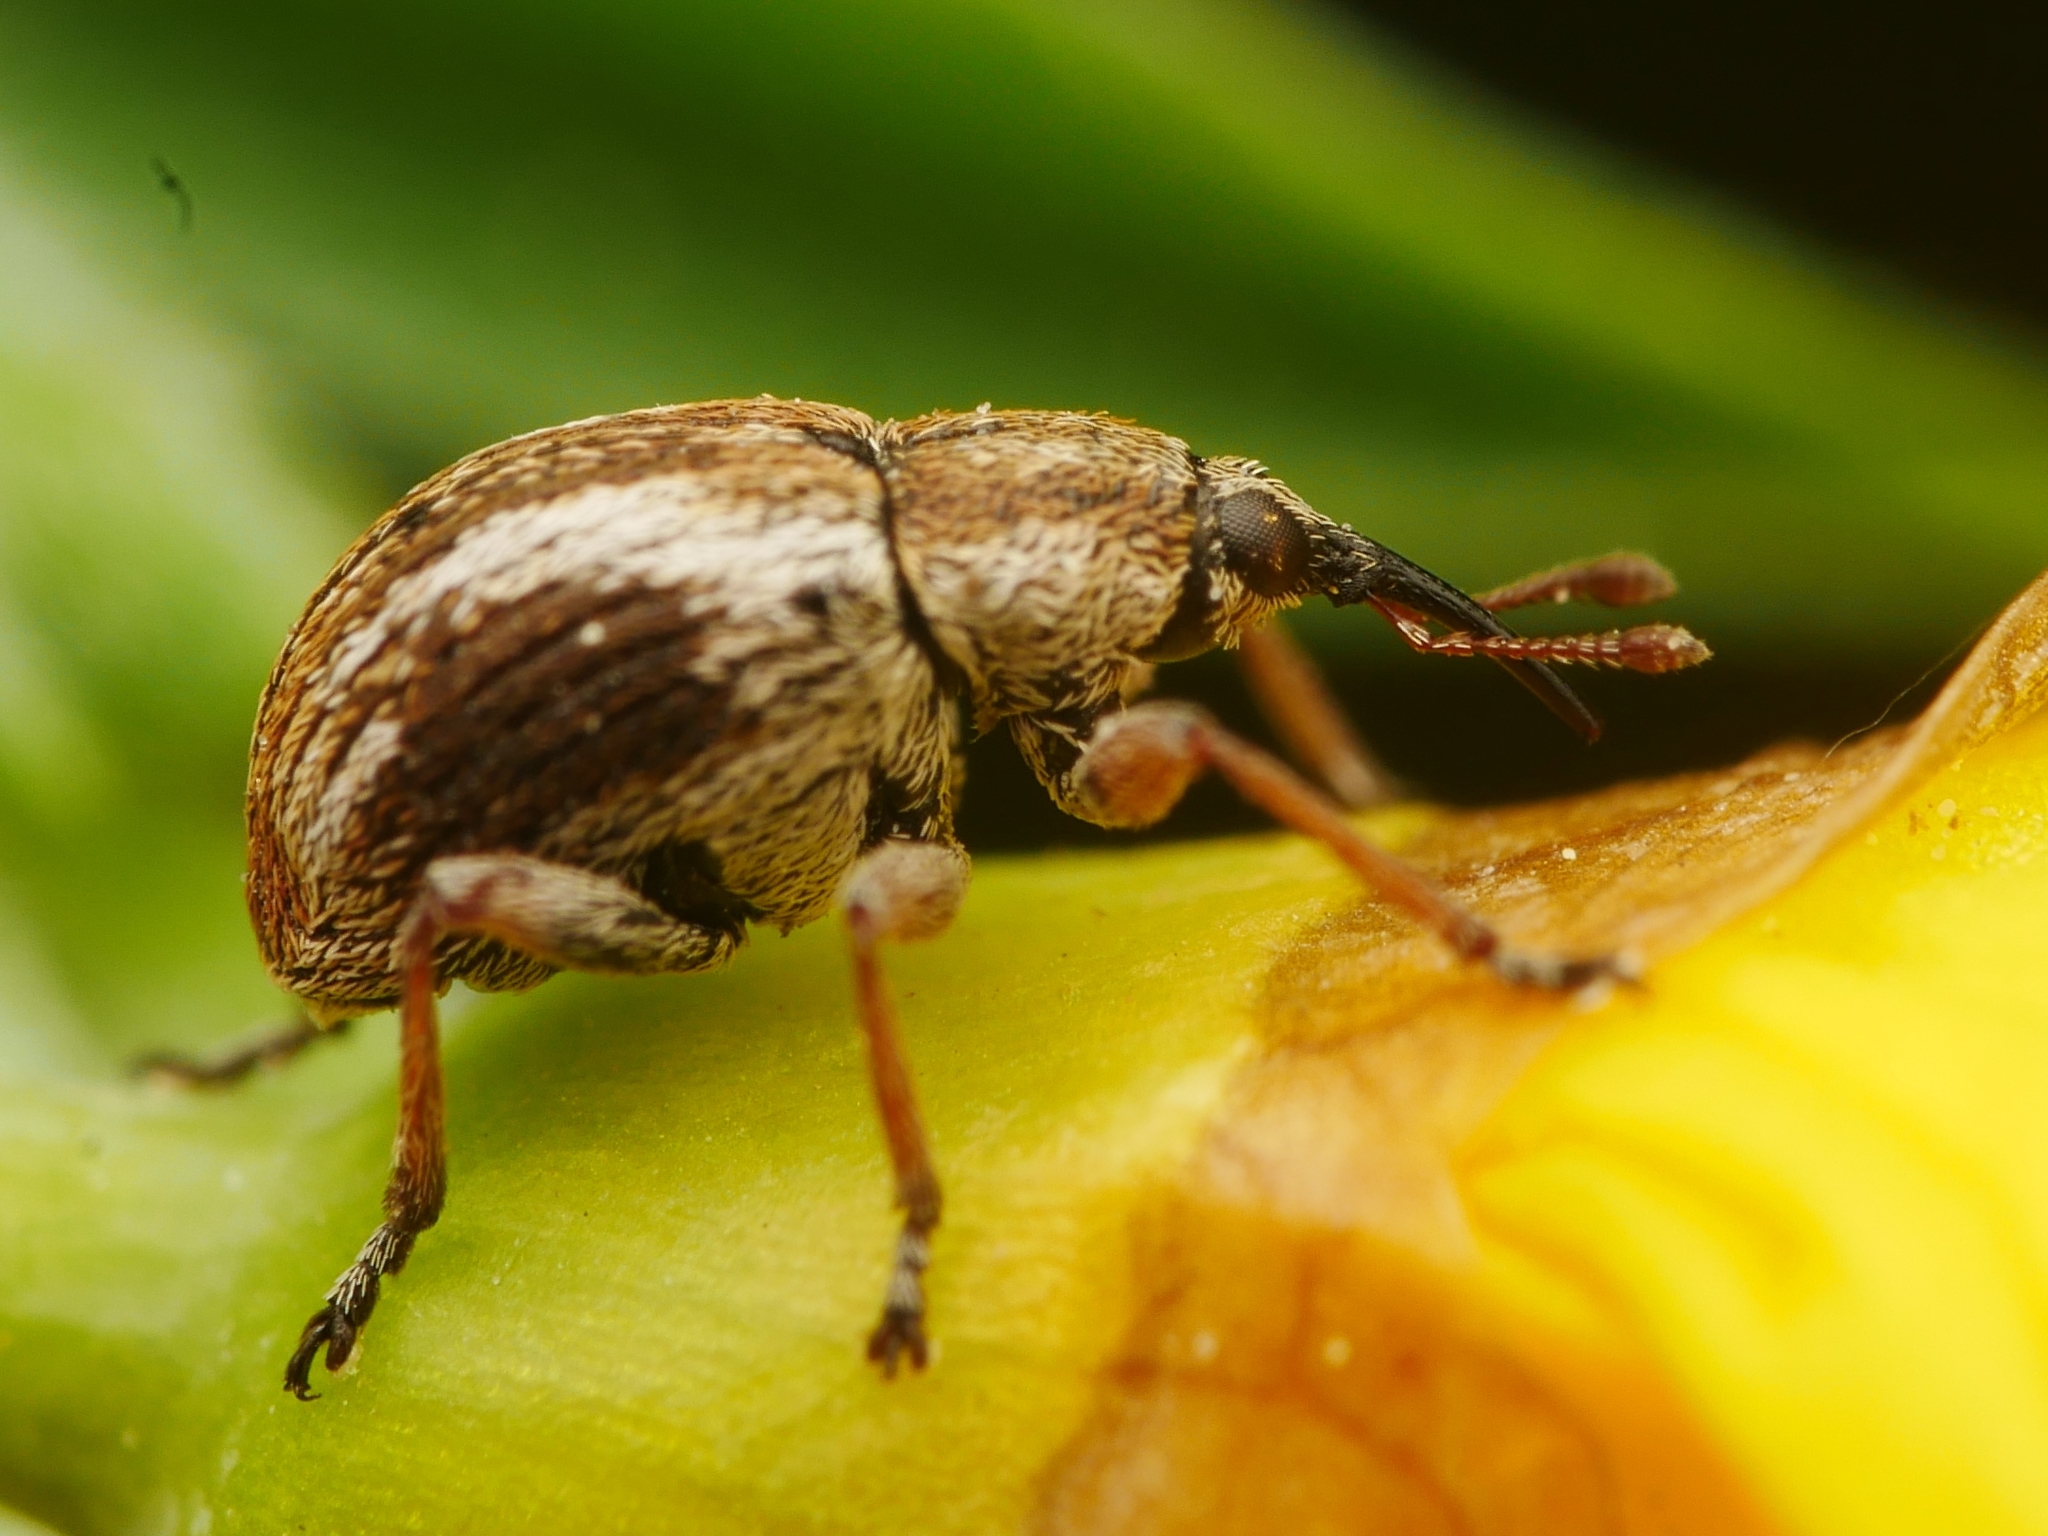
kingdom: Animalia
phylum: Arthropoda
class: Insecta
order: Coleoptera
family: Brentidae
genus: Exapion
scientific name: Exapion fuscirostre
